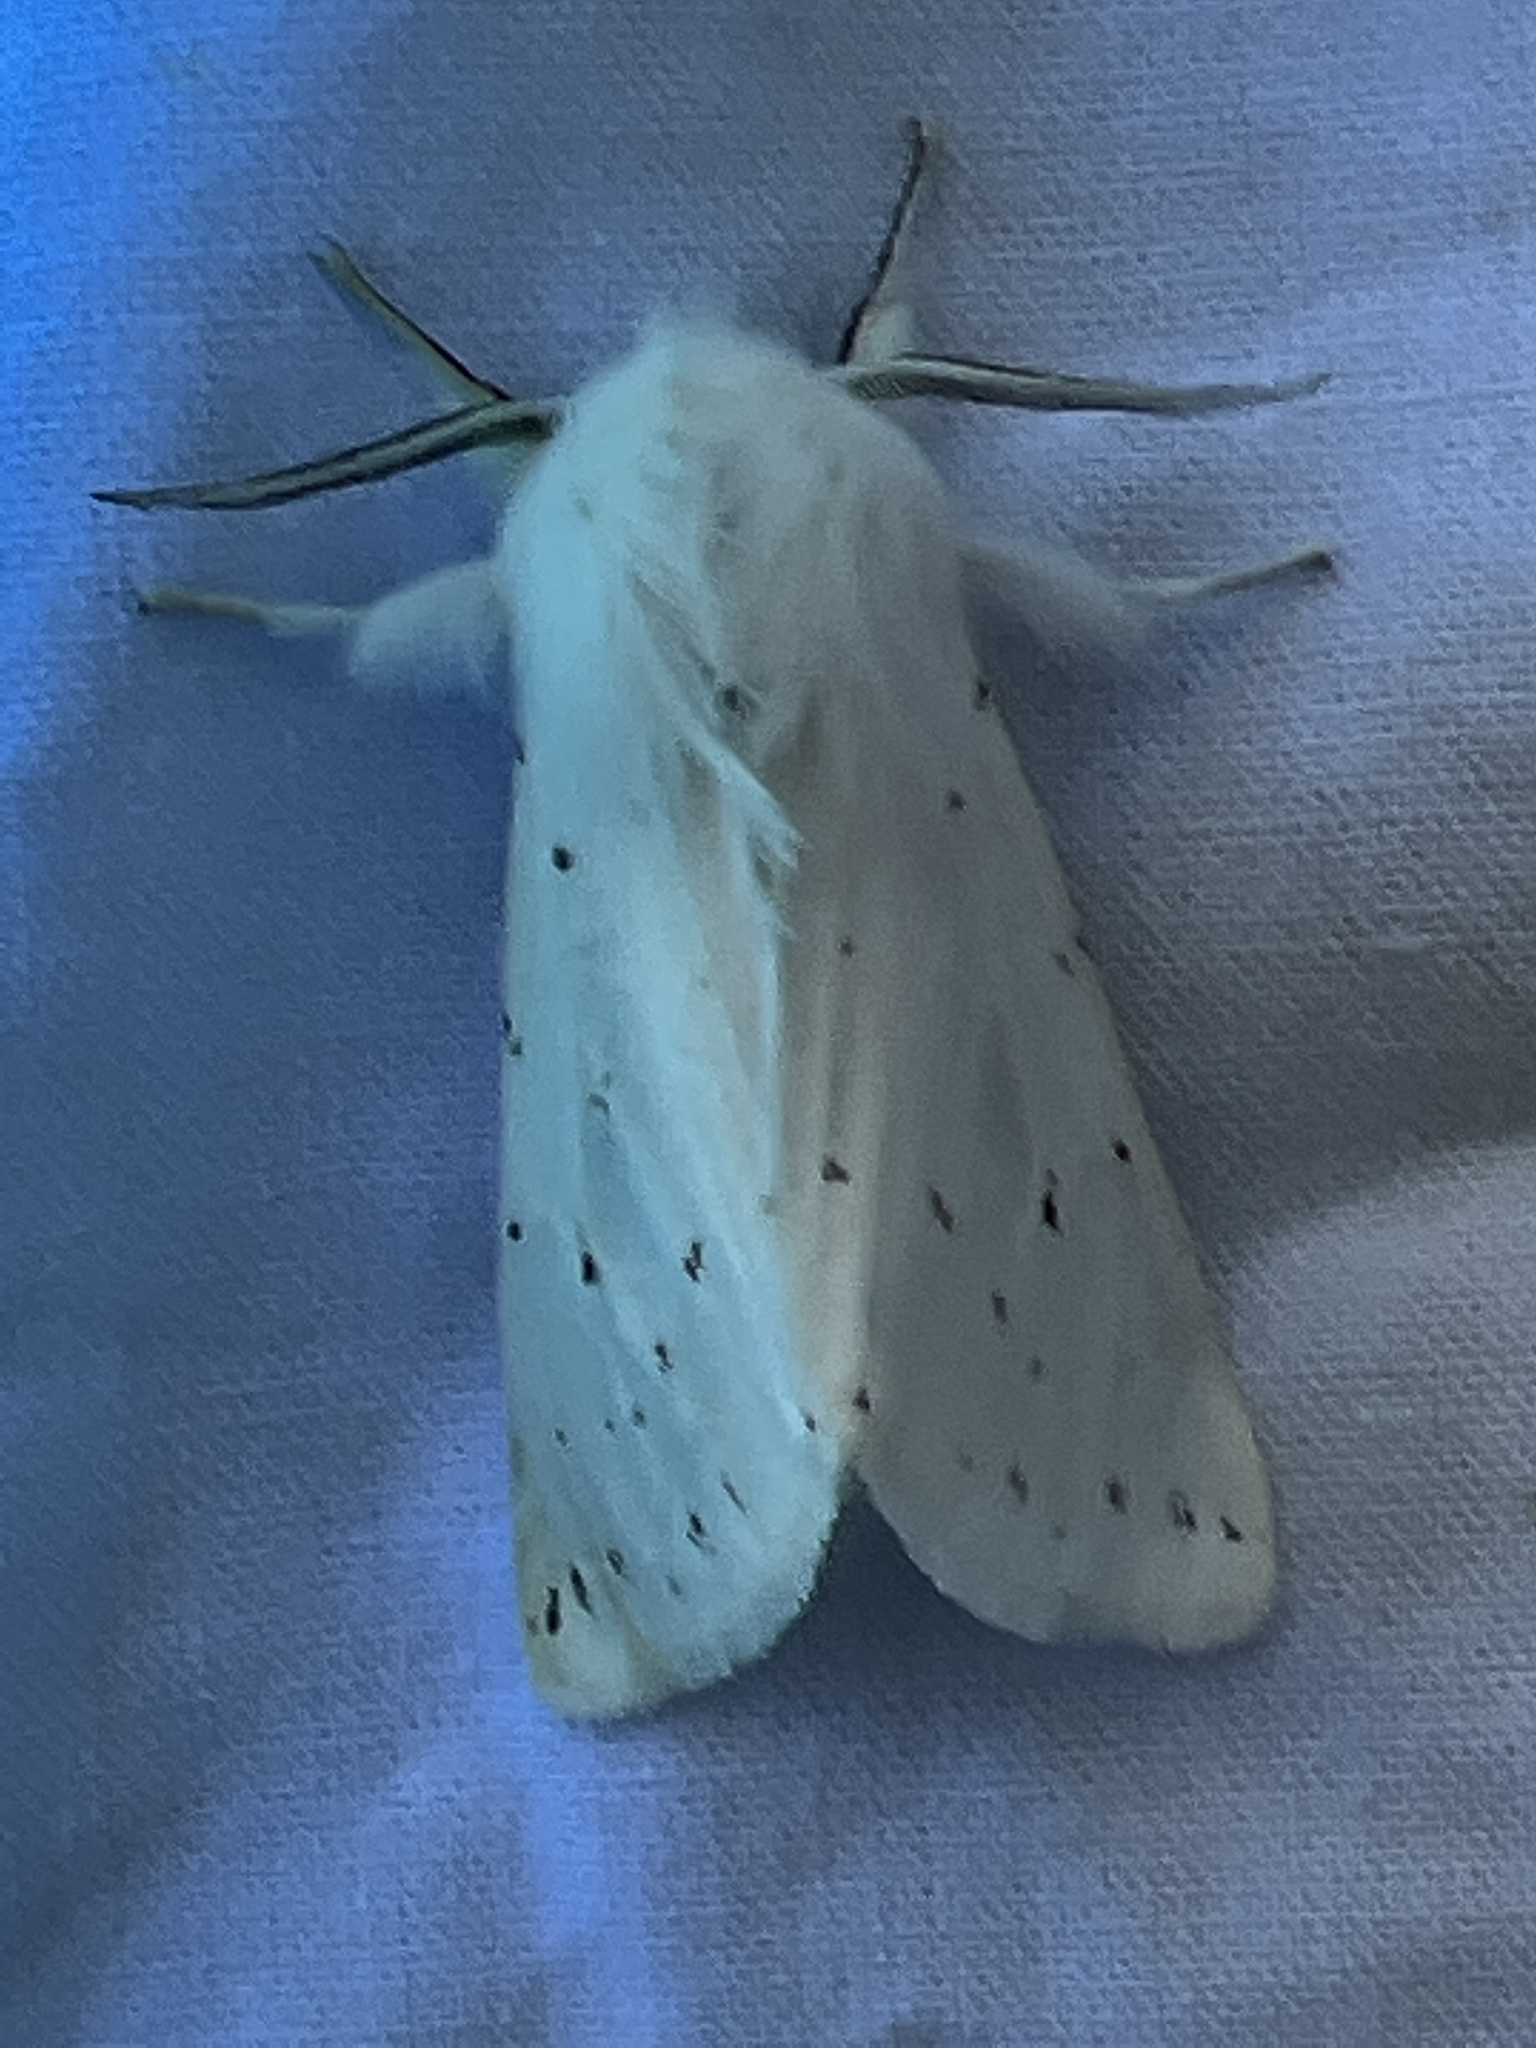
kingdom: Animalia
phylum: Arthropoda
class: Insecta
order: Lepidoptera
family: Erebidae
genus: Spilosoma
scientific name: Spilosoma vestalis
